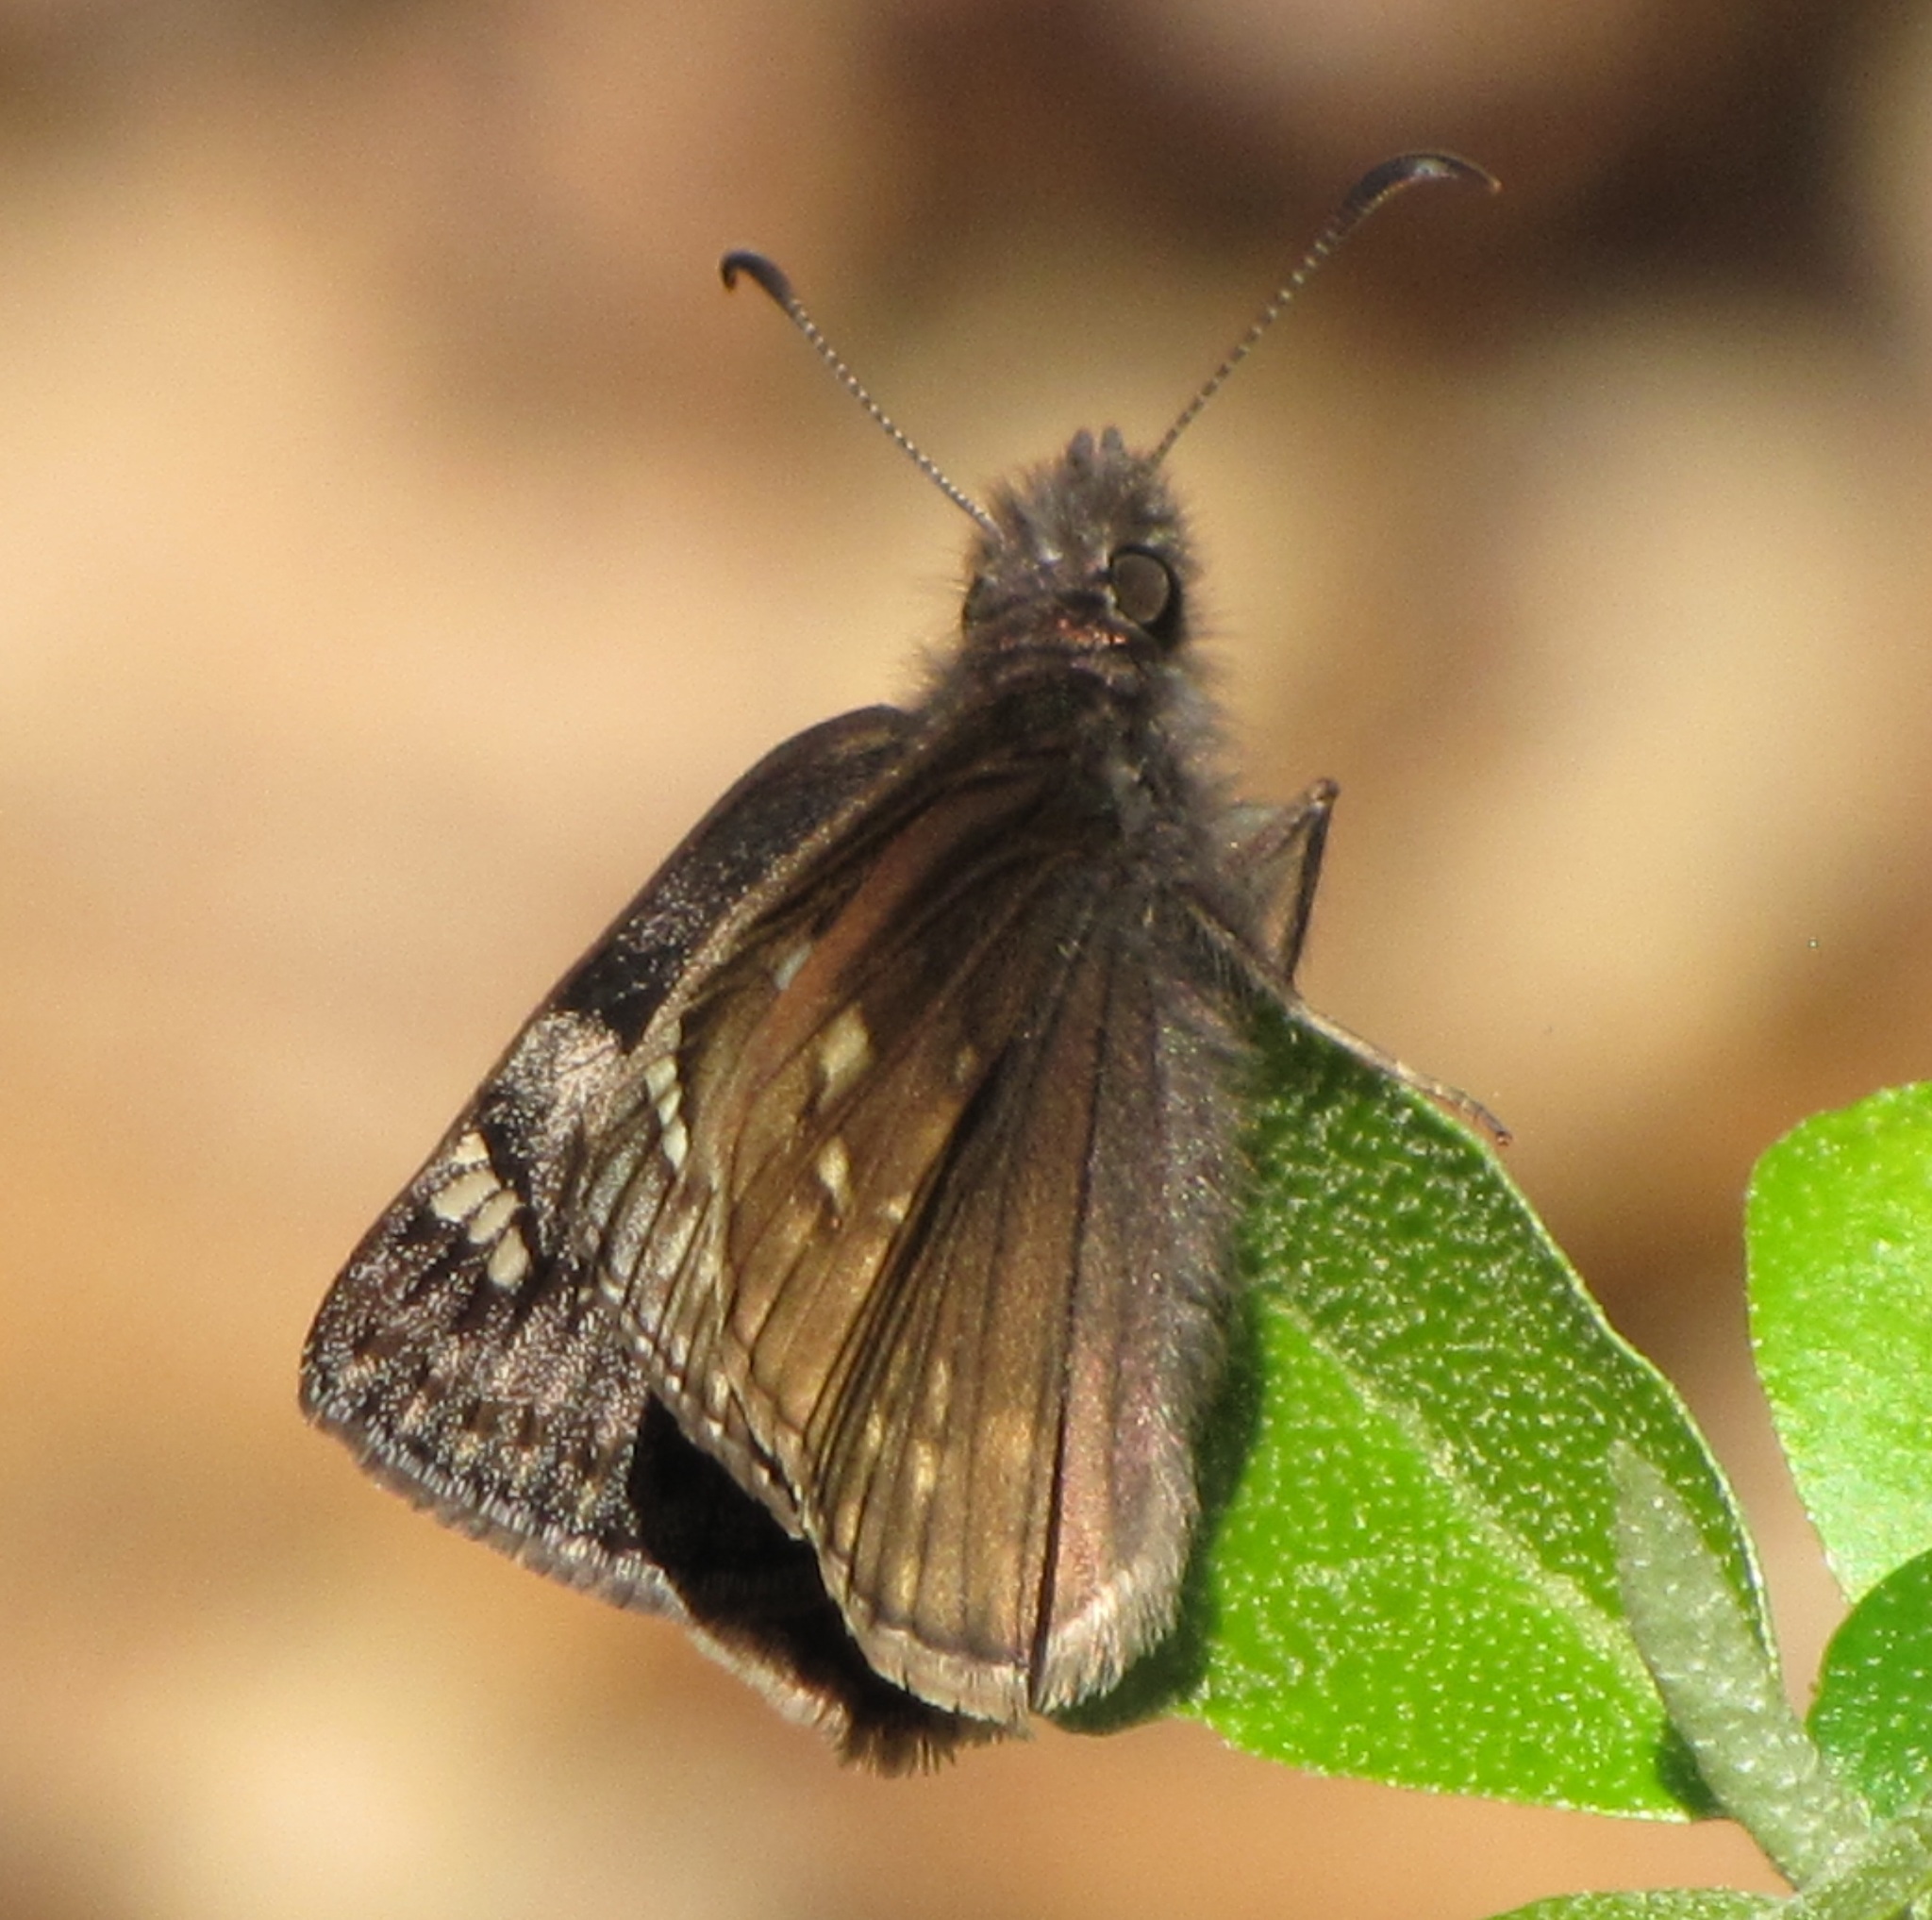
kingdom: Animalia
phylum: Arthropoda
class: Insecta
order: Lepidoptera
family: Hesperiidae
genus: Erynnis
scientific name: Erynnis juvenalis
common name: Juvenal's duskywing
